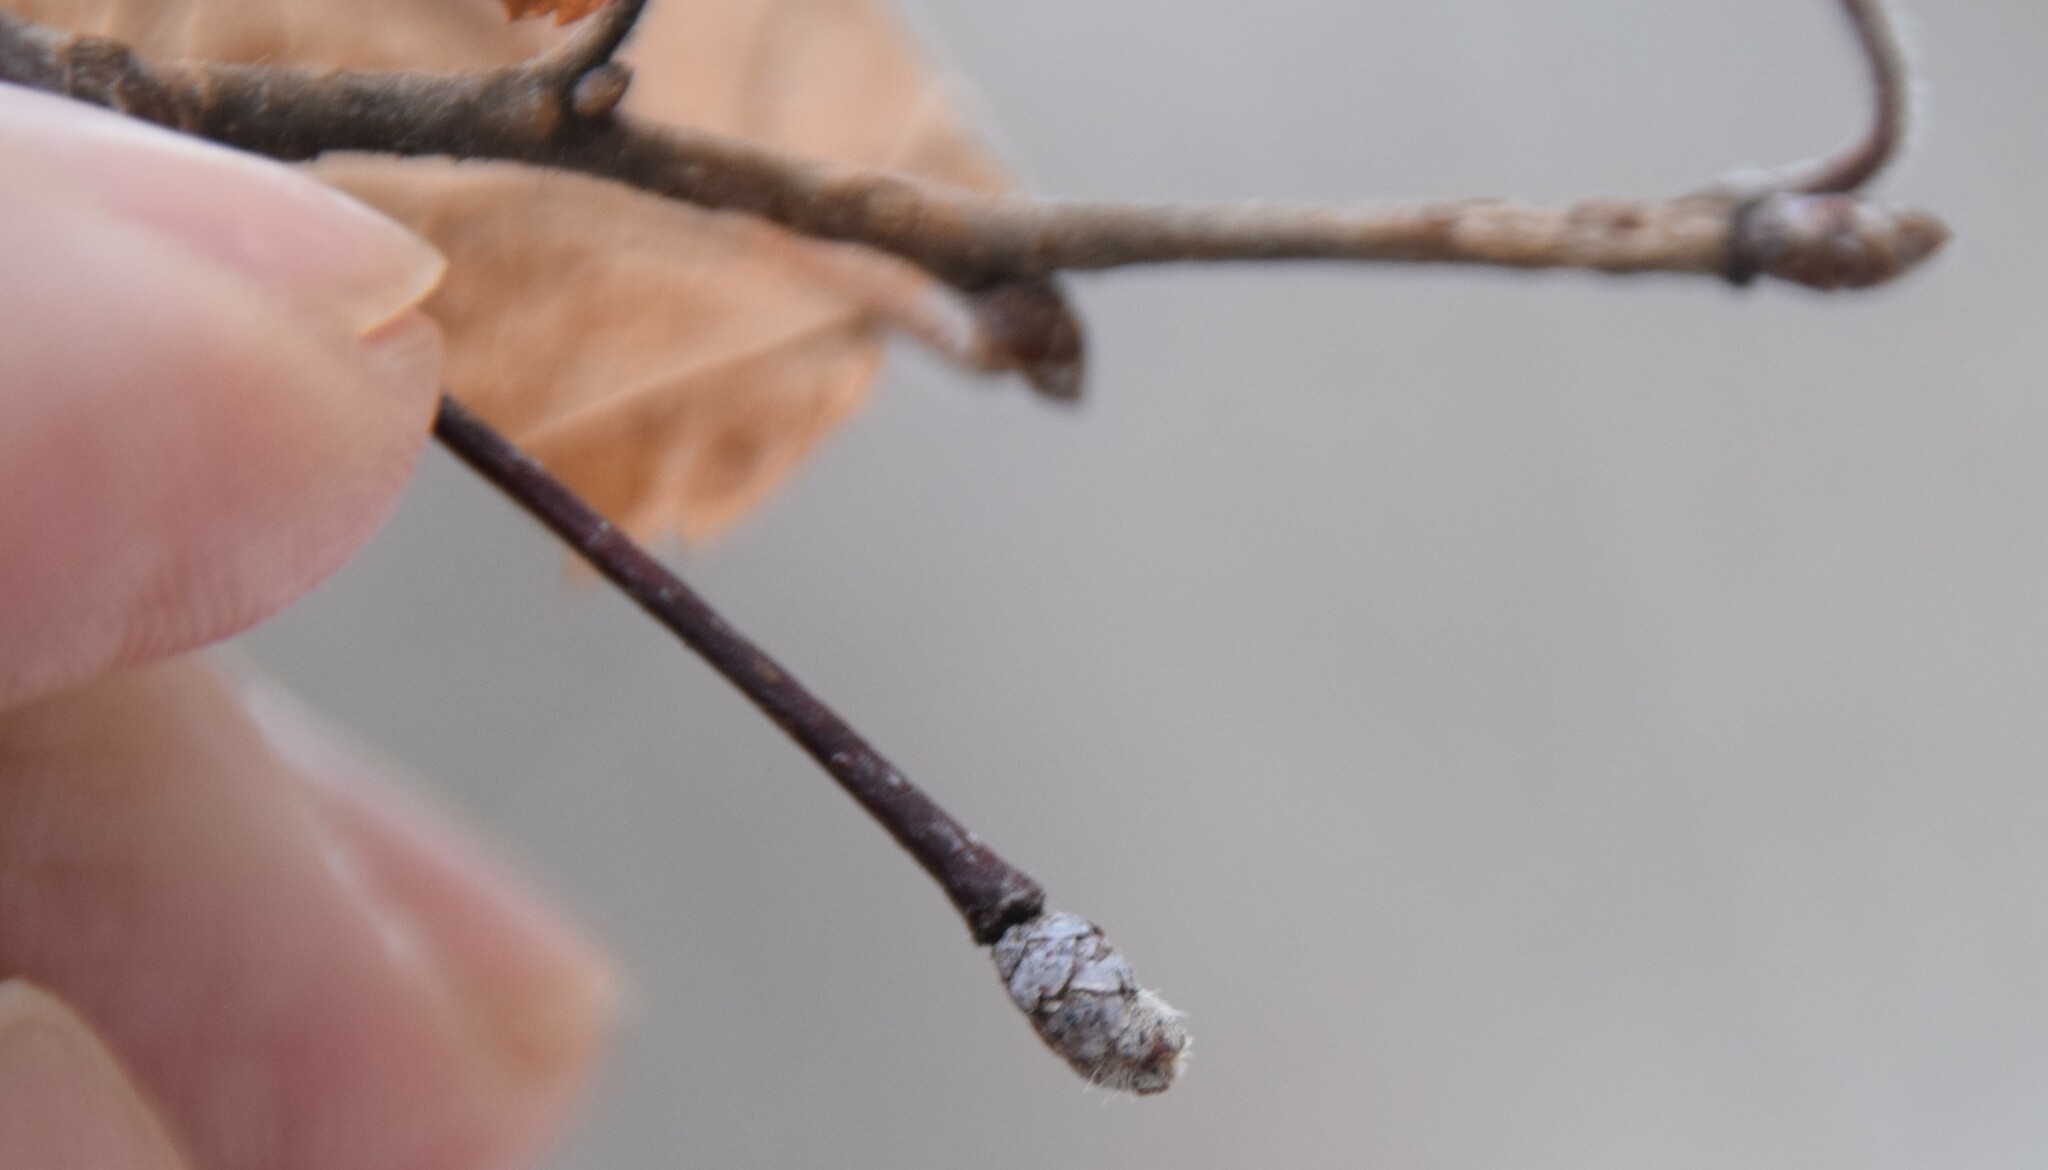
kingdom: Plantae
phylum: Tracheophyta
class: Magnoliopsida
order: Fagales
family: Betulaceae
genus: Ostrya
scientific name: Ostrya virginiana
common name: Ironwood
